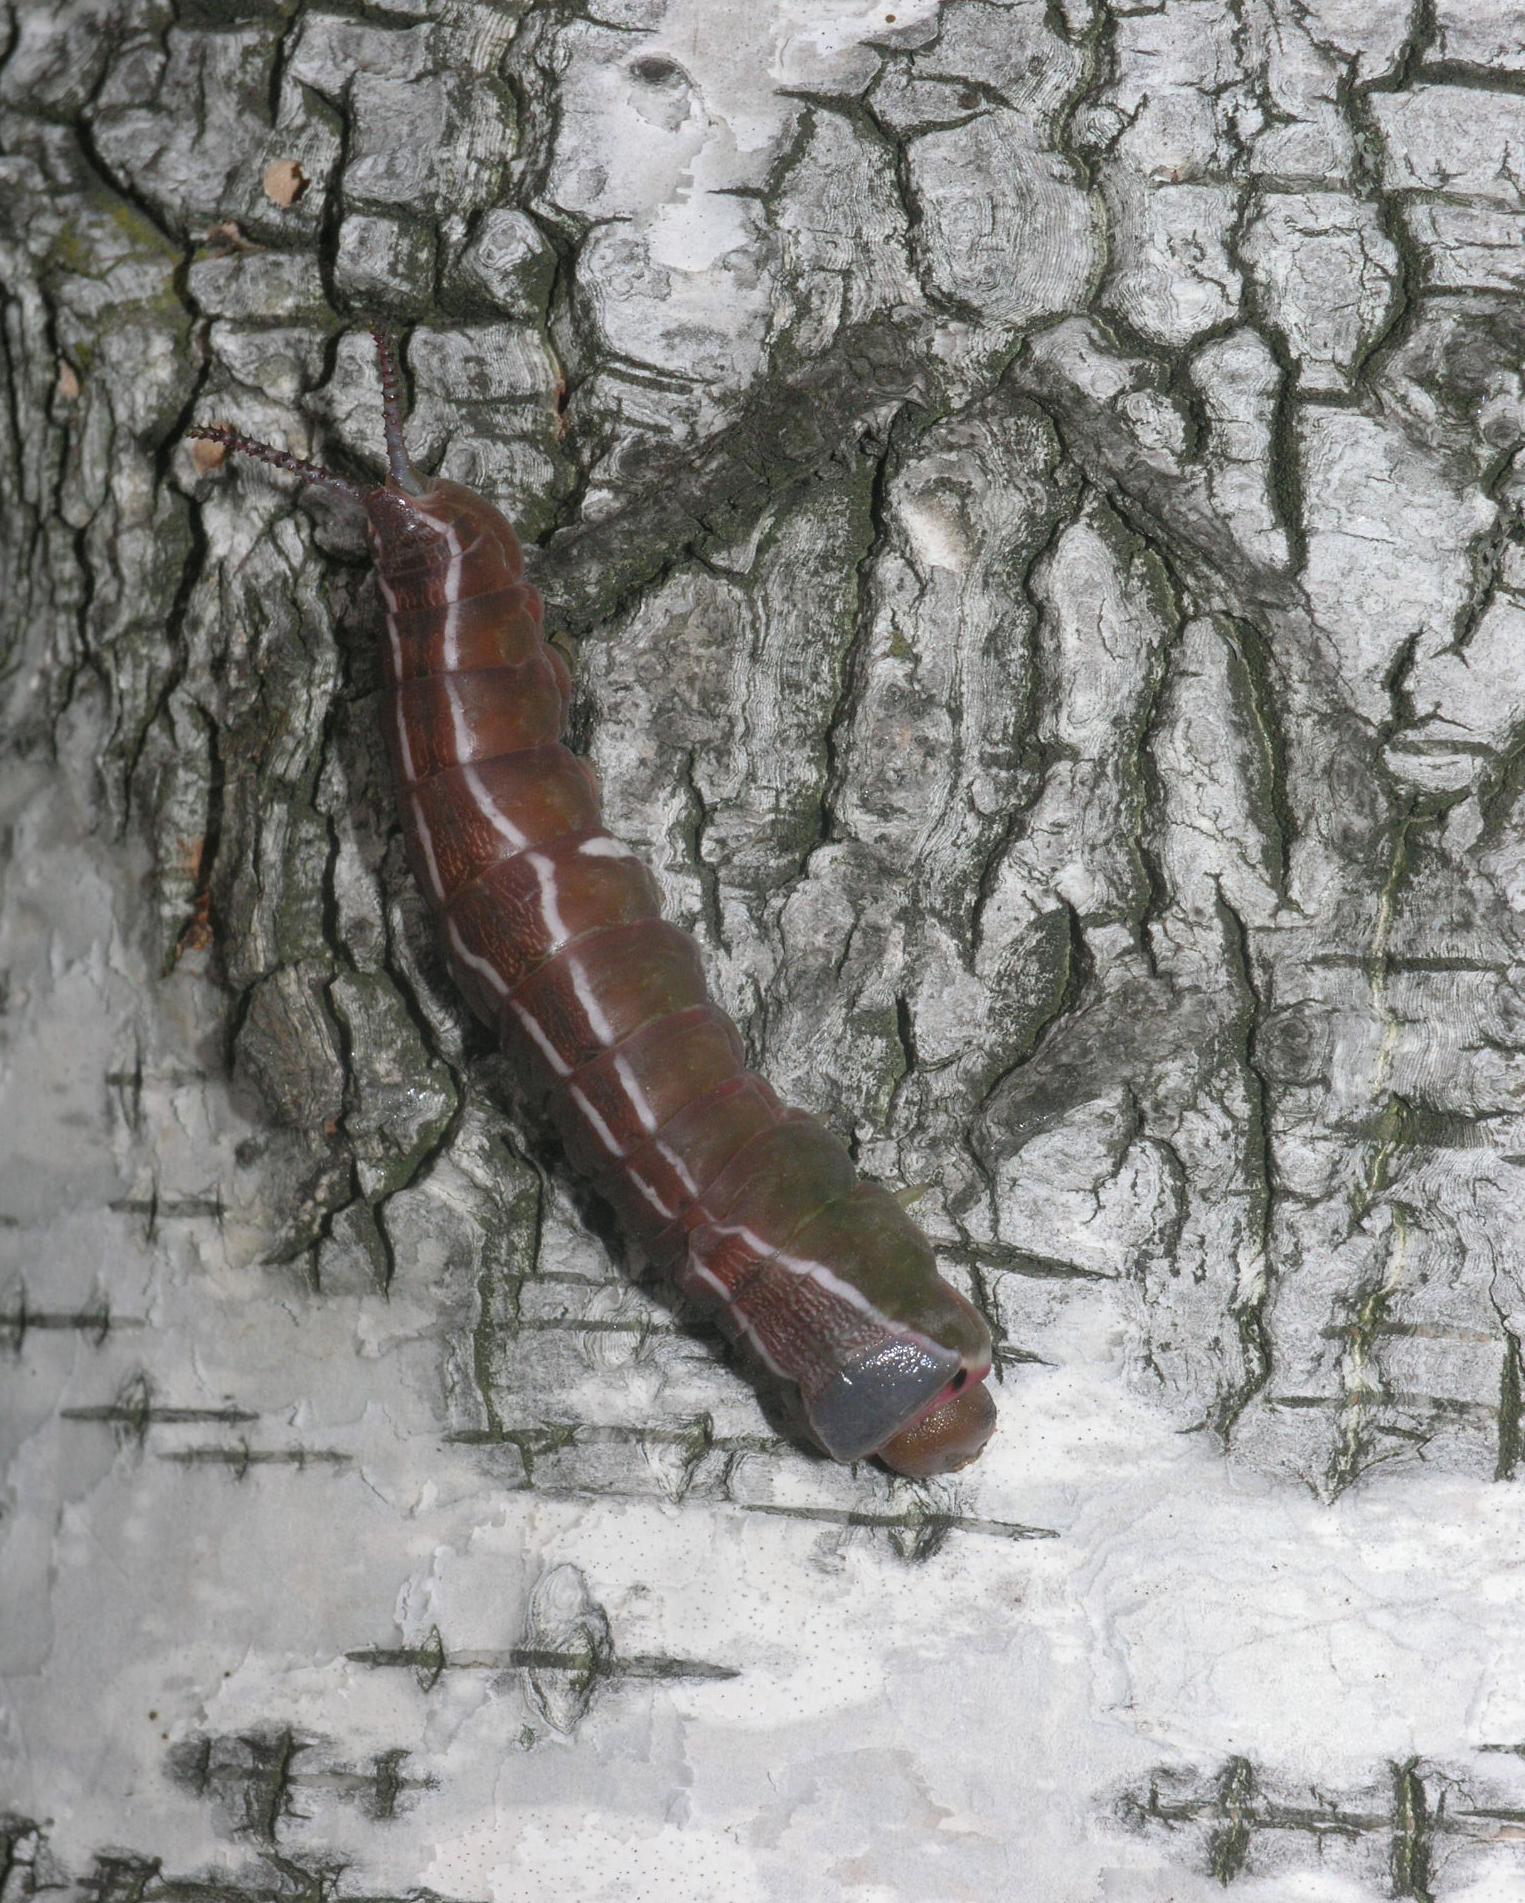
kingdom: Animalia
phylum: Arthropoda
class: Insecta
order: Lepidoptera
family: Notodontidae
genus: Cerura
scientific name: Cerura erminea
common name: Lesser puss moth
